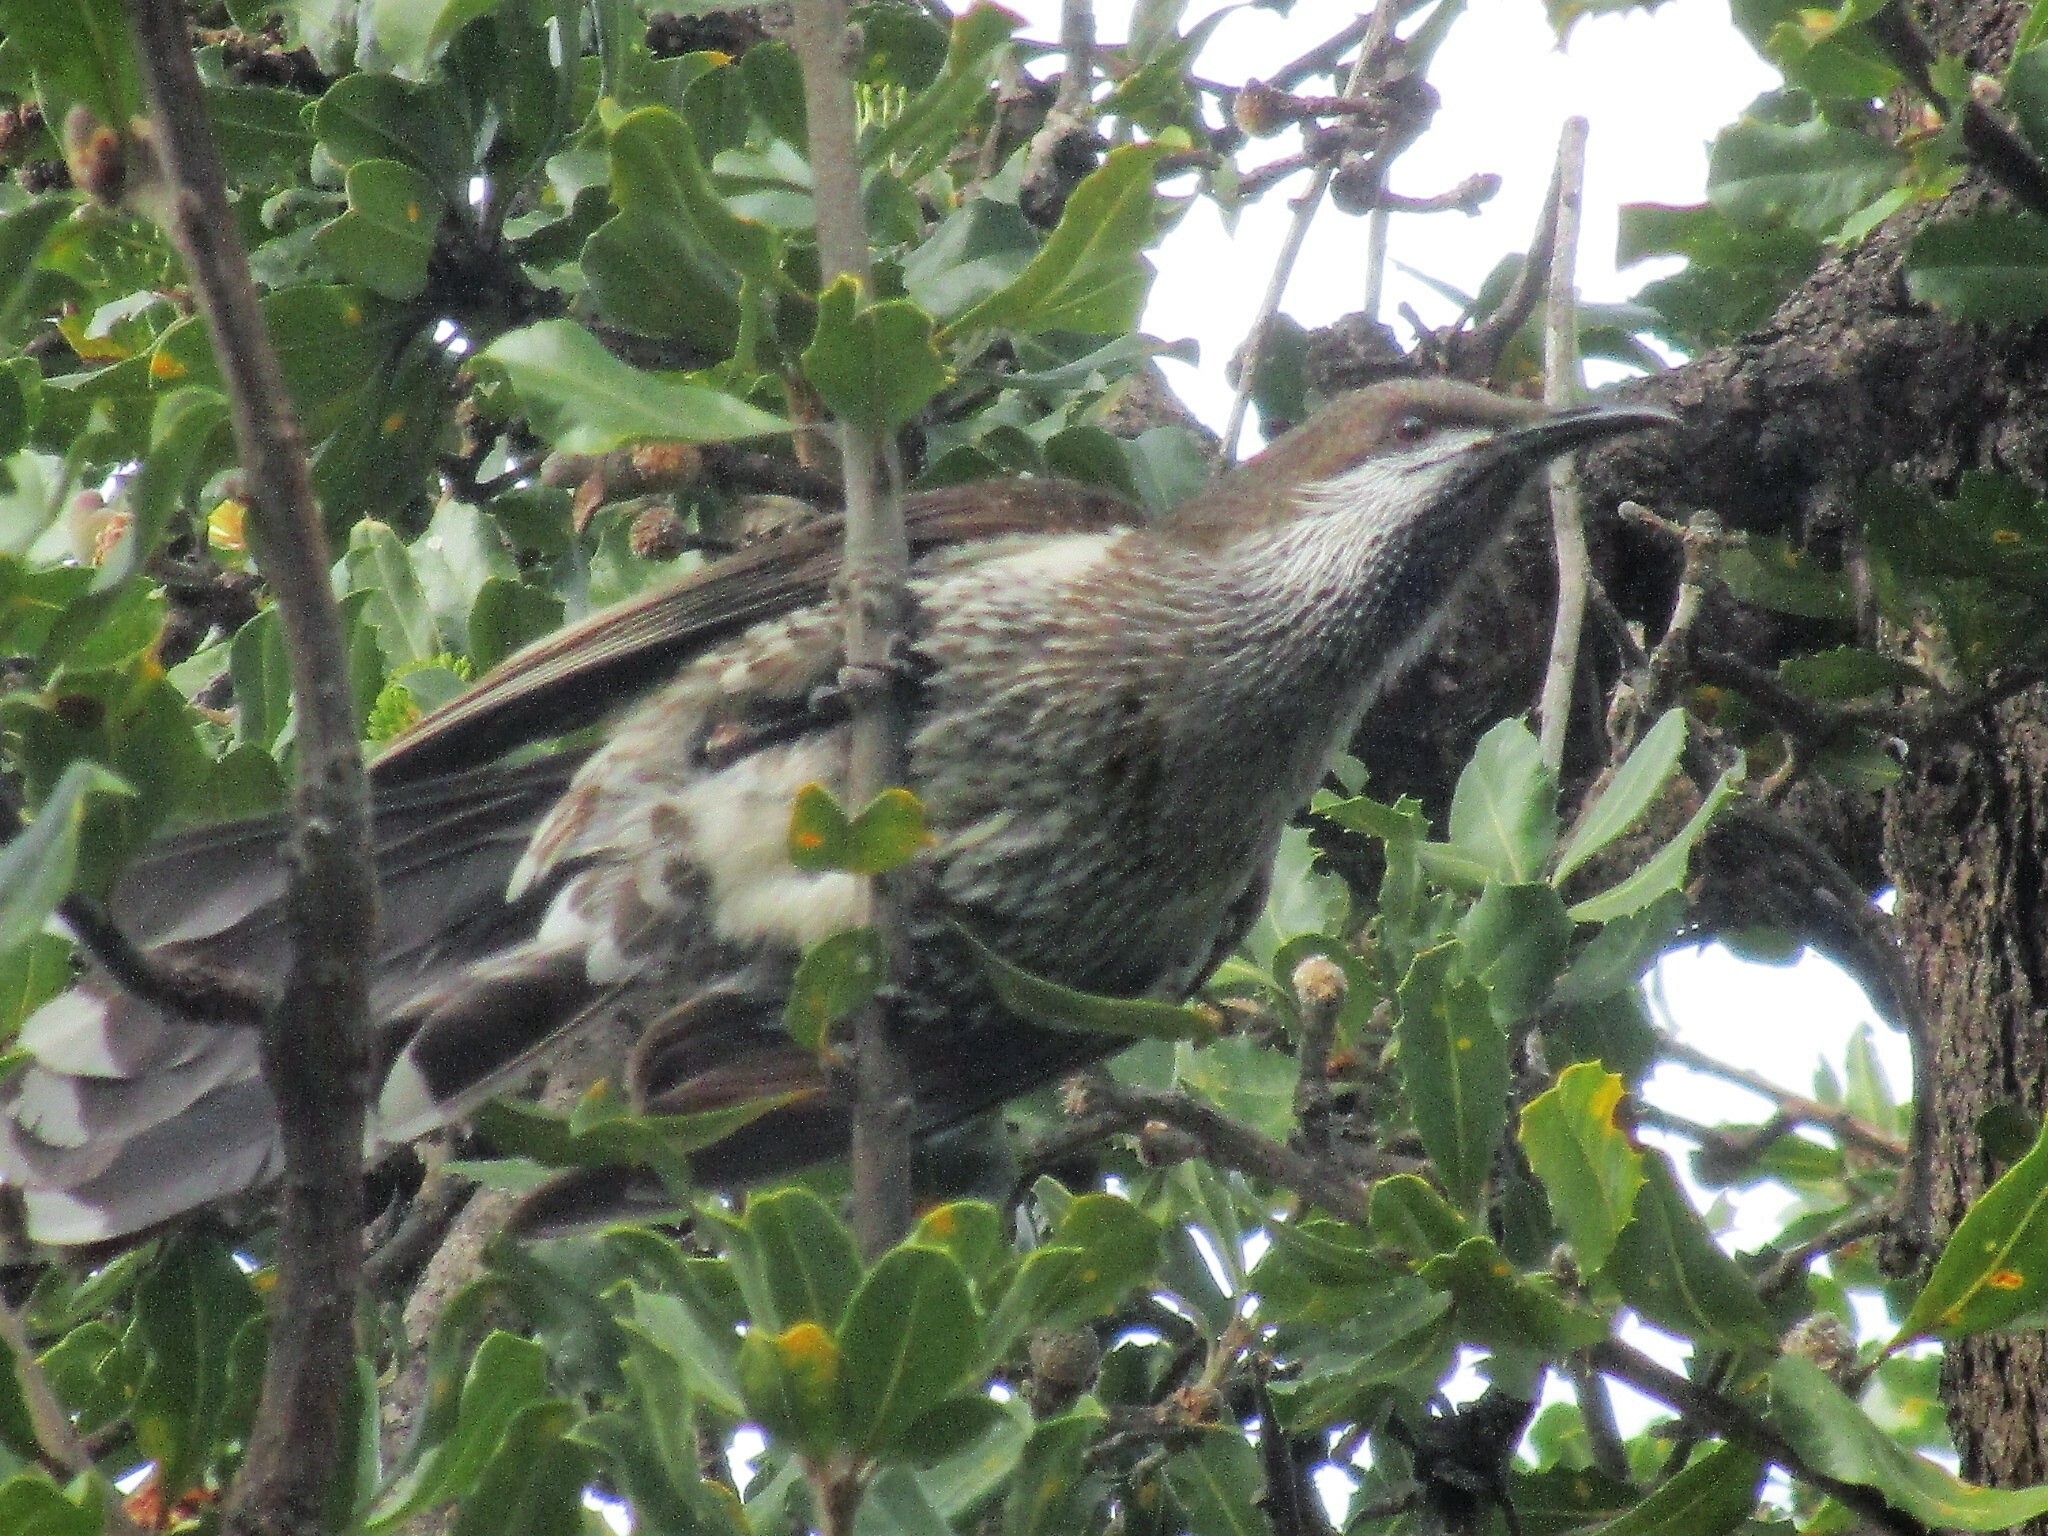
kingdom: Animalia
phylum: Chordata
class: Aves
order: Passeriformes
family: Meliphagidae
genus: Anthochaera
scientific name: Anthochaera lunulata
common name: Western wattlebird
